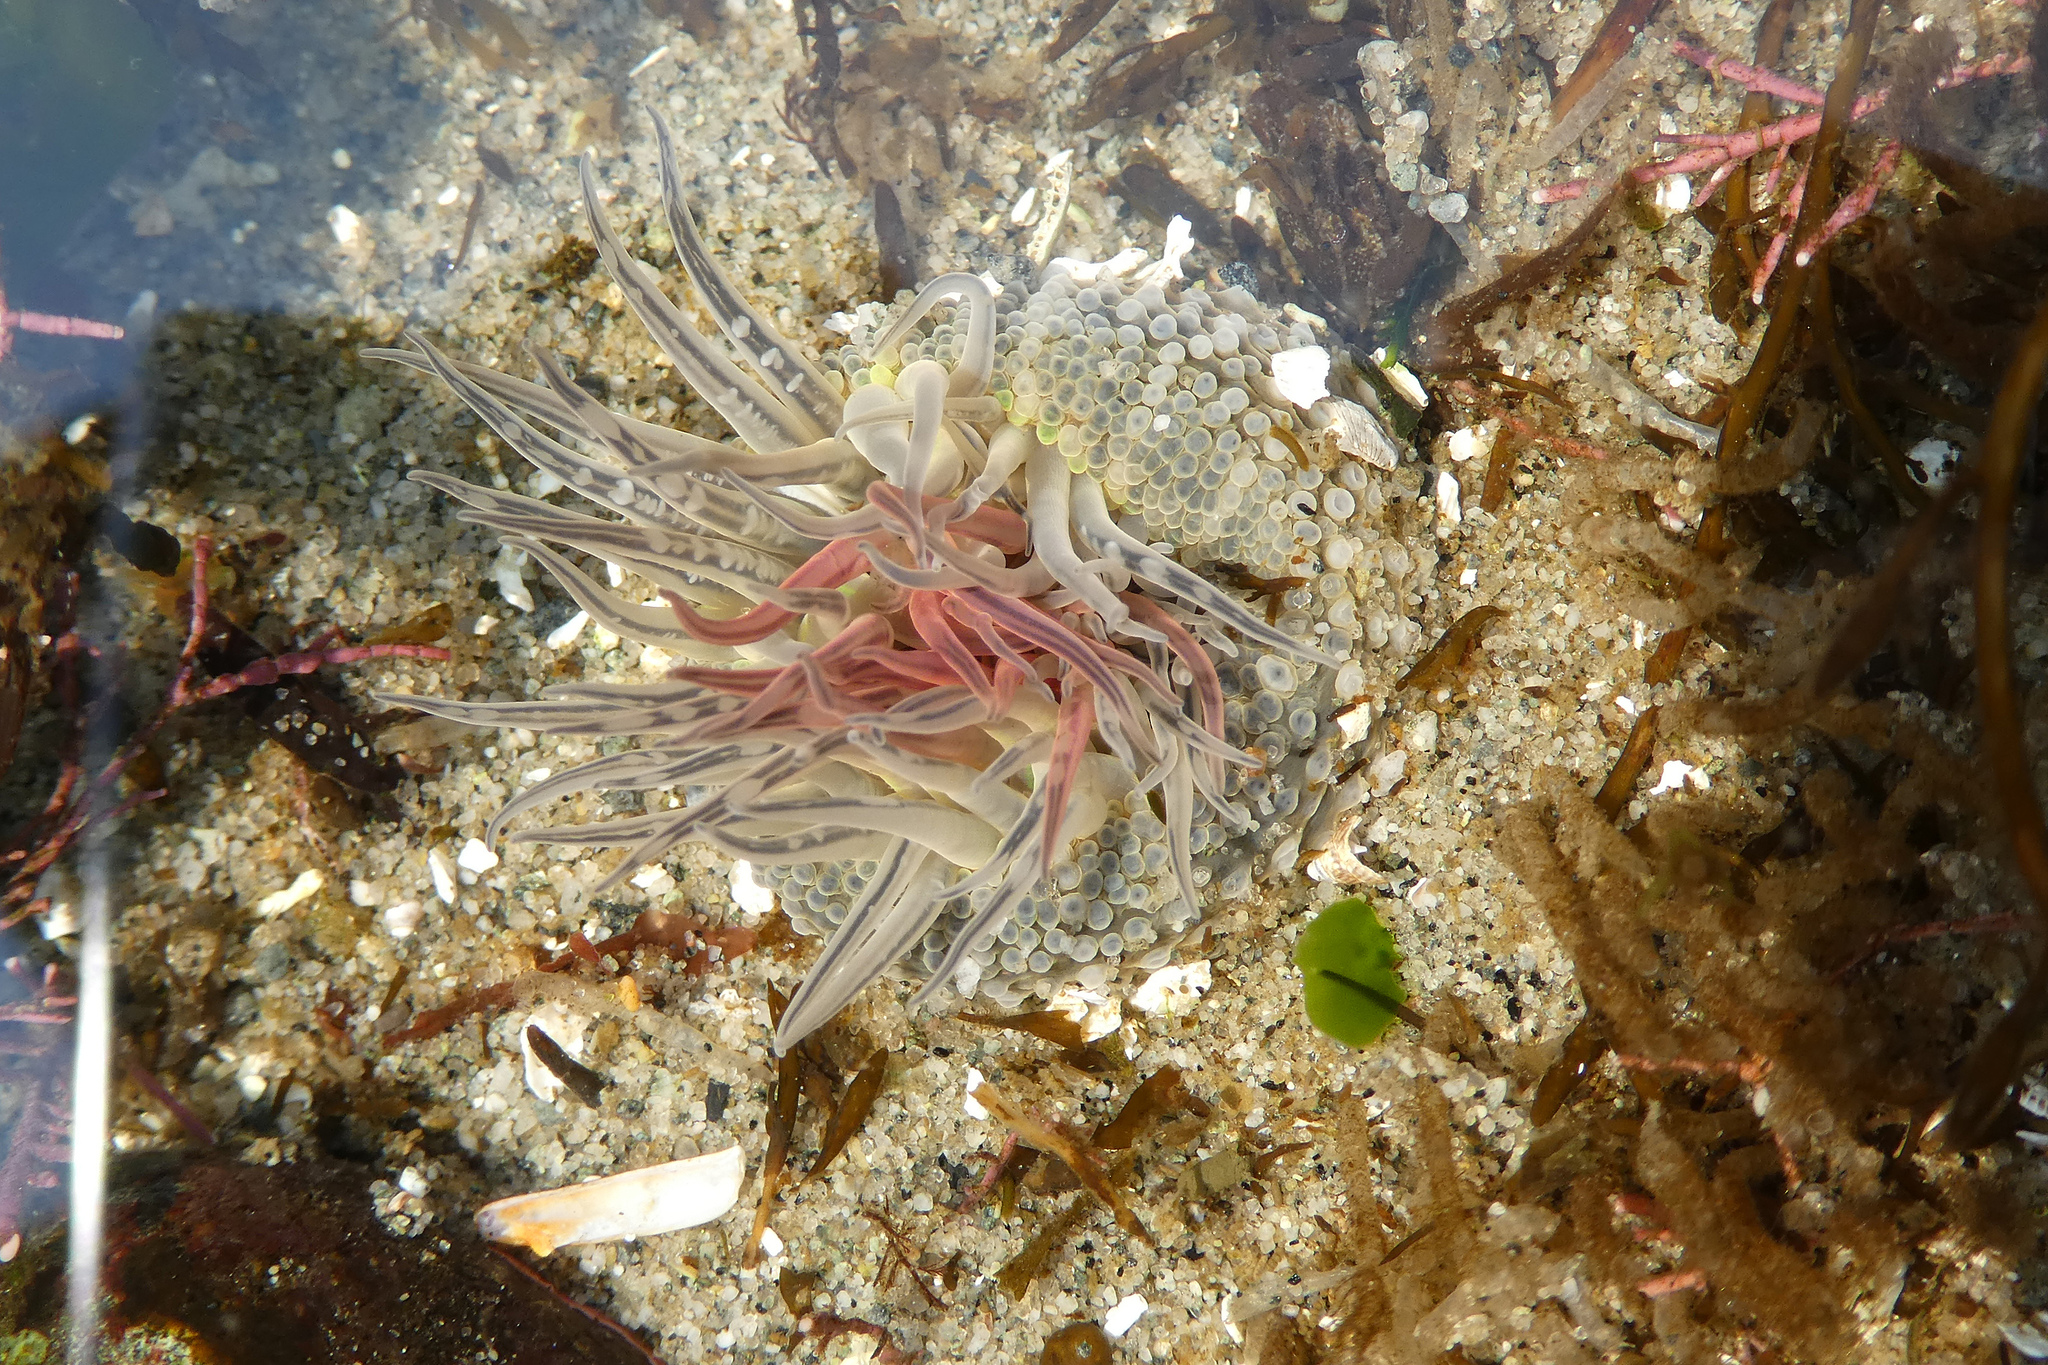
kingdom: Animalia
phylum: Cnidaria
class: Anthozoa
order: Actiniaria
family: Actiniidae
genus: Anthopleura
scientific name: Anthopleura artemisia
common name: Buried sea anemone
